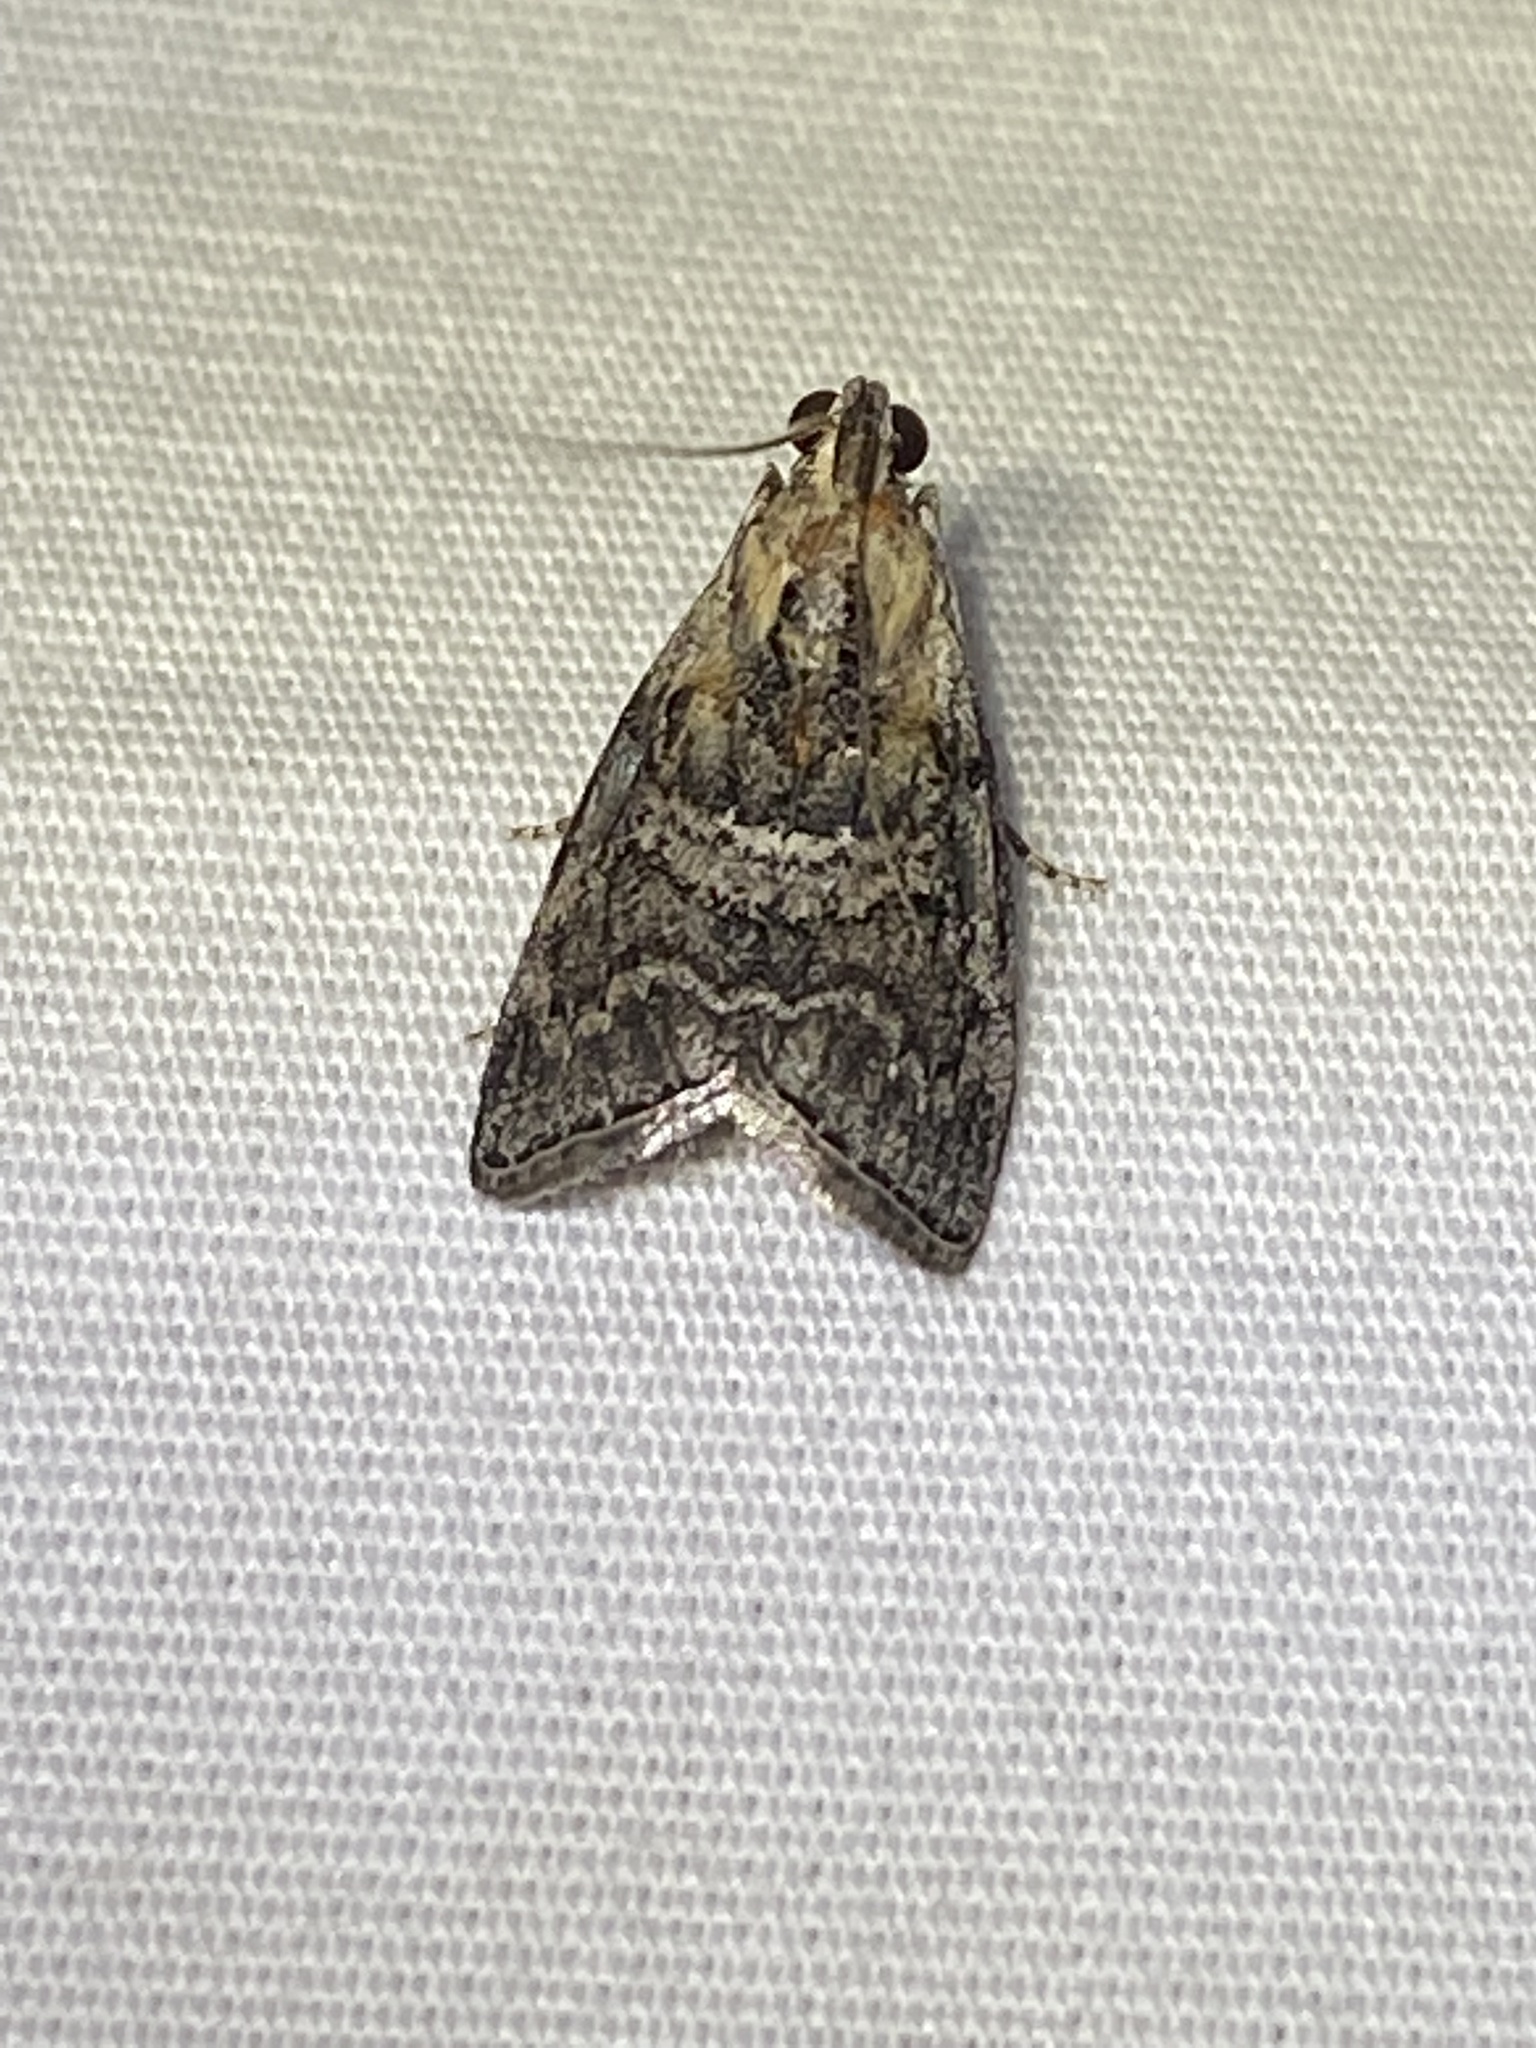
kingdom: Animalia
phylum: Arthropoda
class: Insecta
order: Lepidoptera
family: Pyralidae
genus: Pococera
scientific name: Pococera expandens
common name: Striped oak webworm moth
